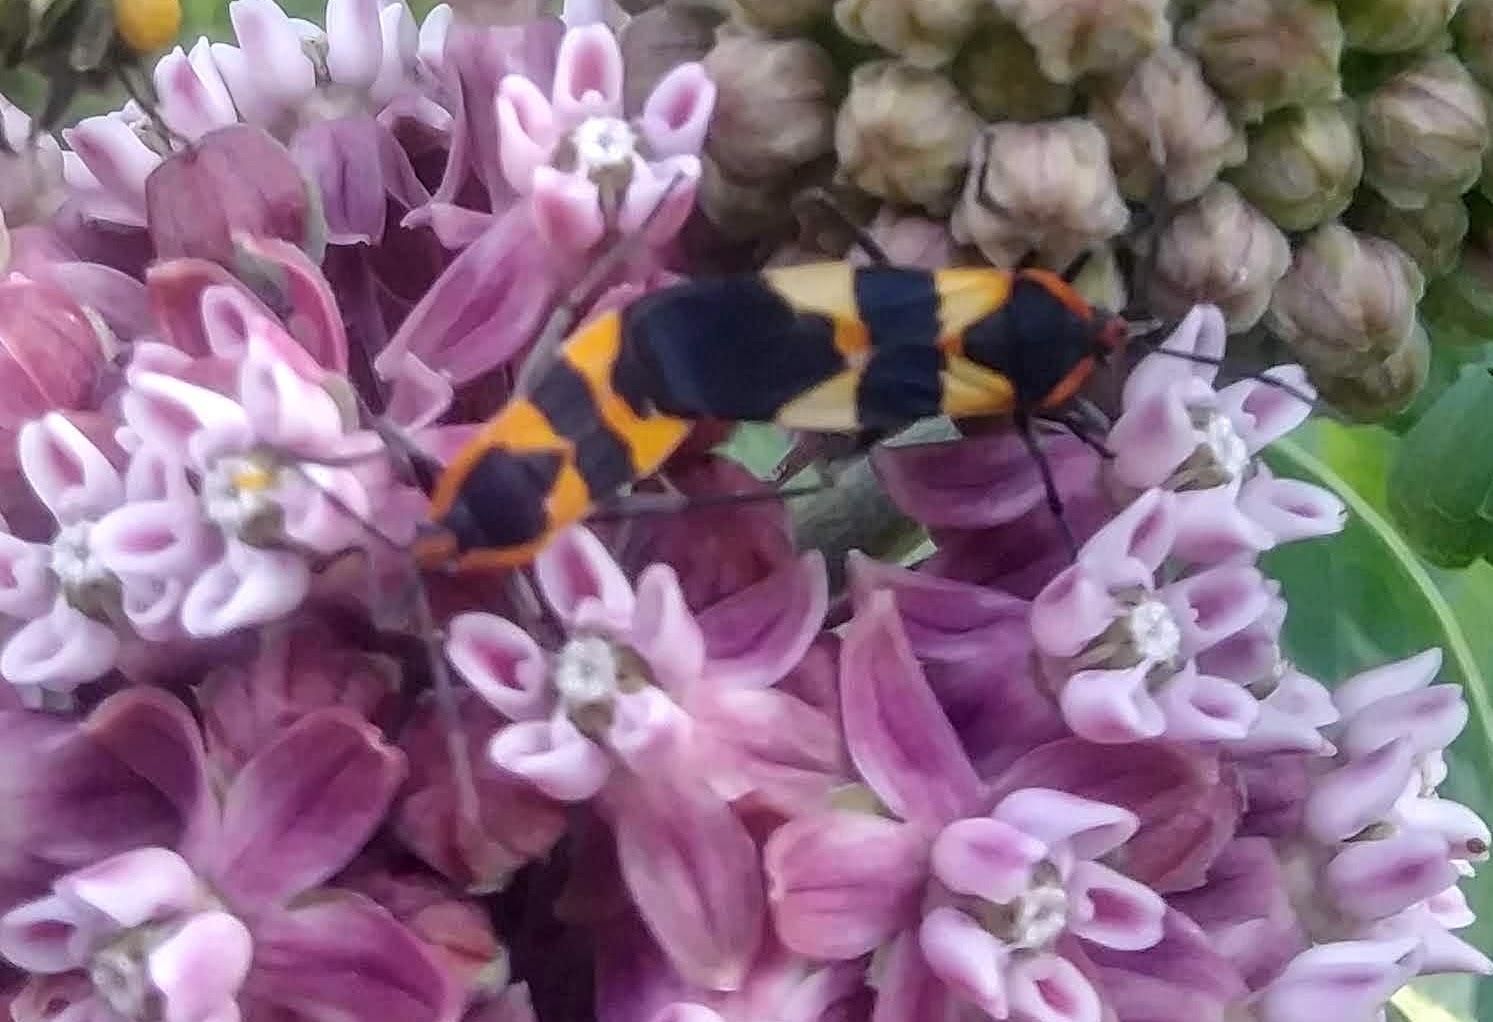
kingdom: Animalia
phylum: Arthropoda
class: Insecta
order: Hemiptera
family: Lygaeidae
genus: Oncopeltus
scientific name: Oncopeltus fasciatus
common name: Large milkweed bug
